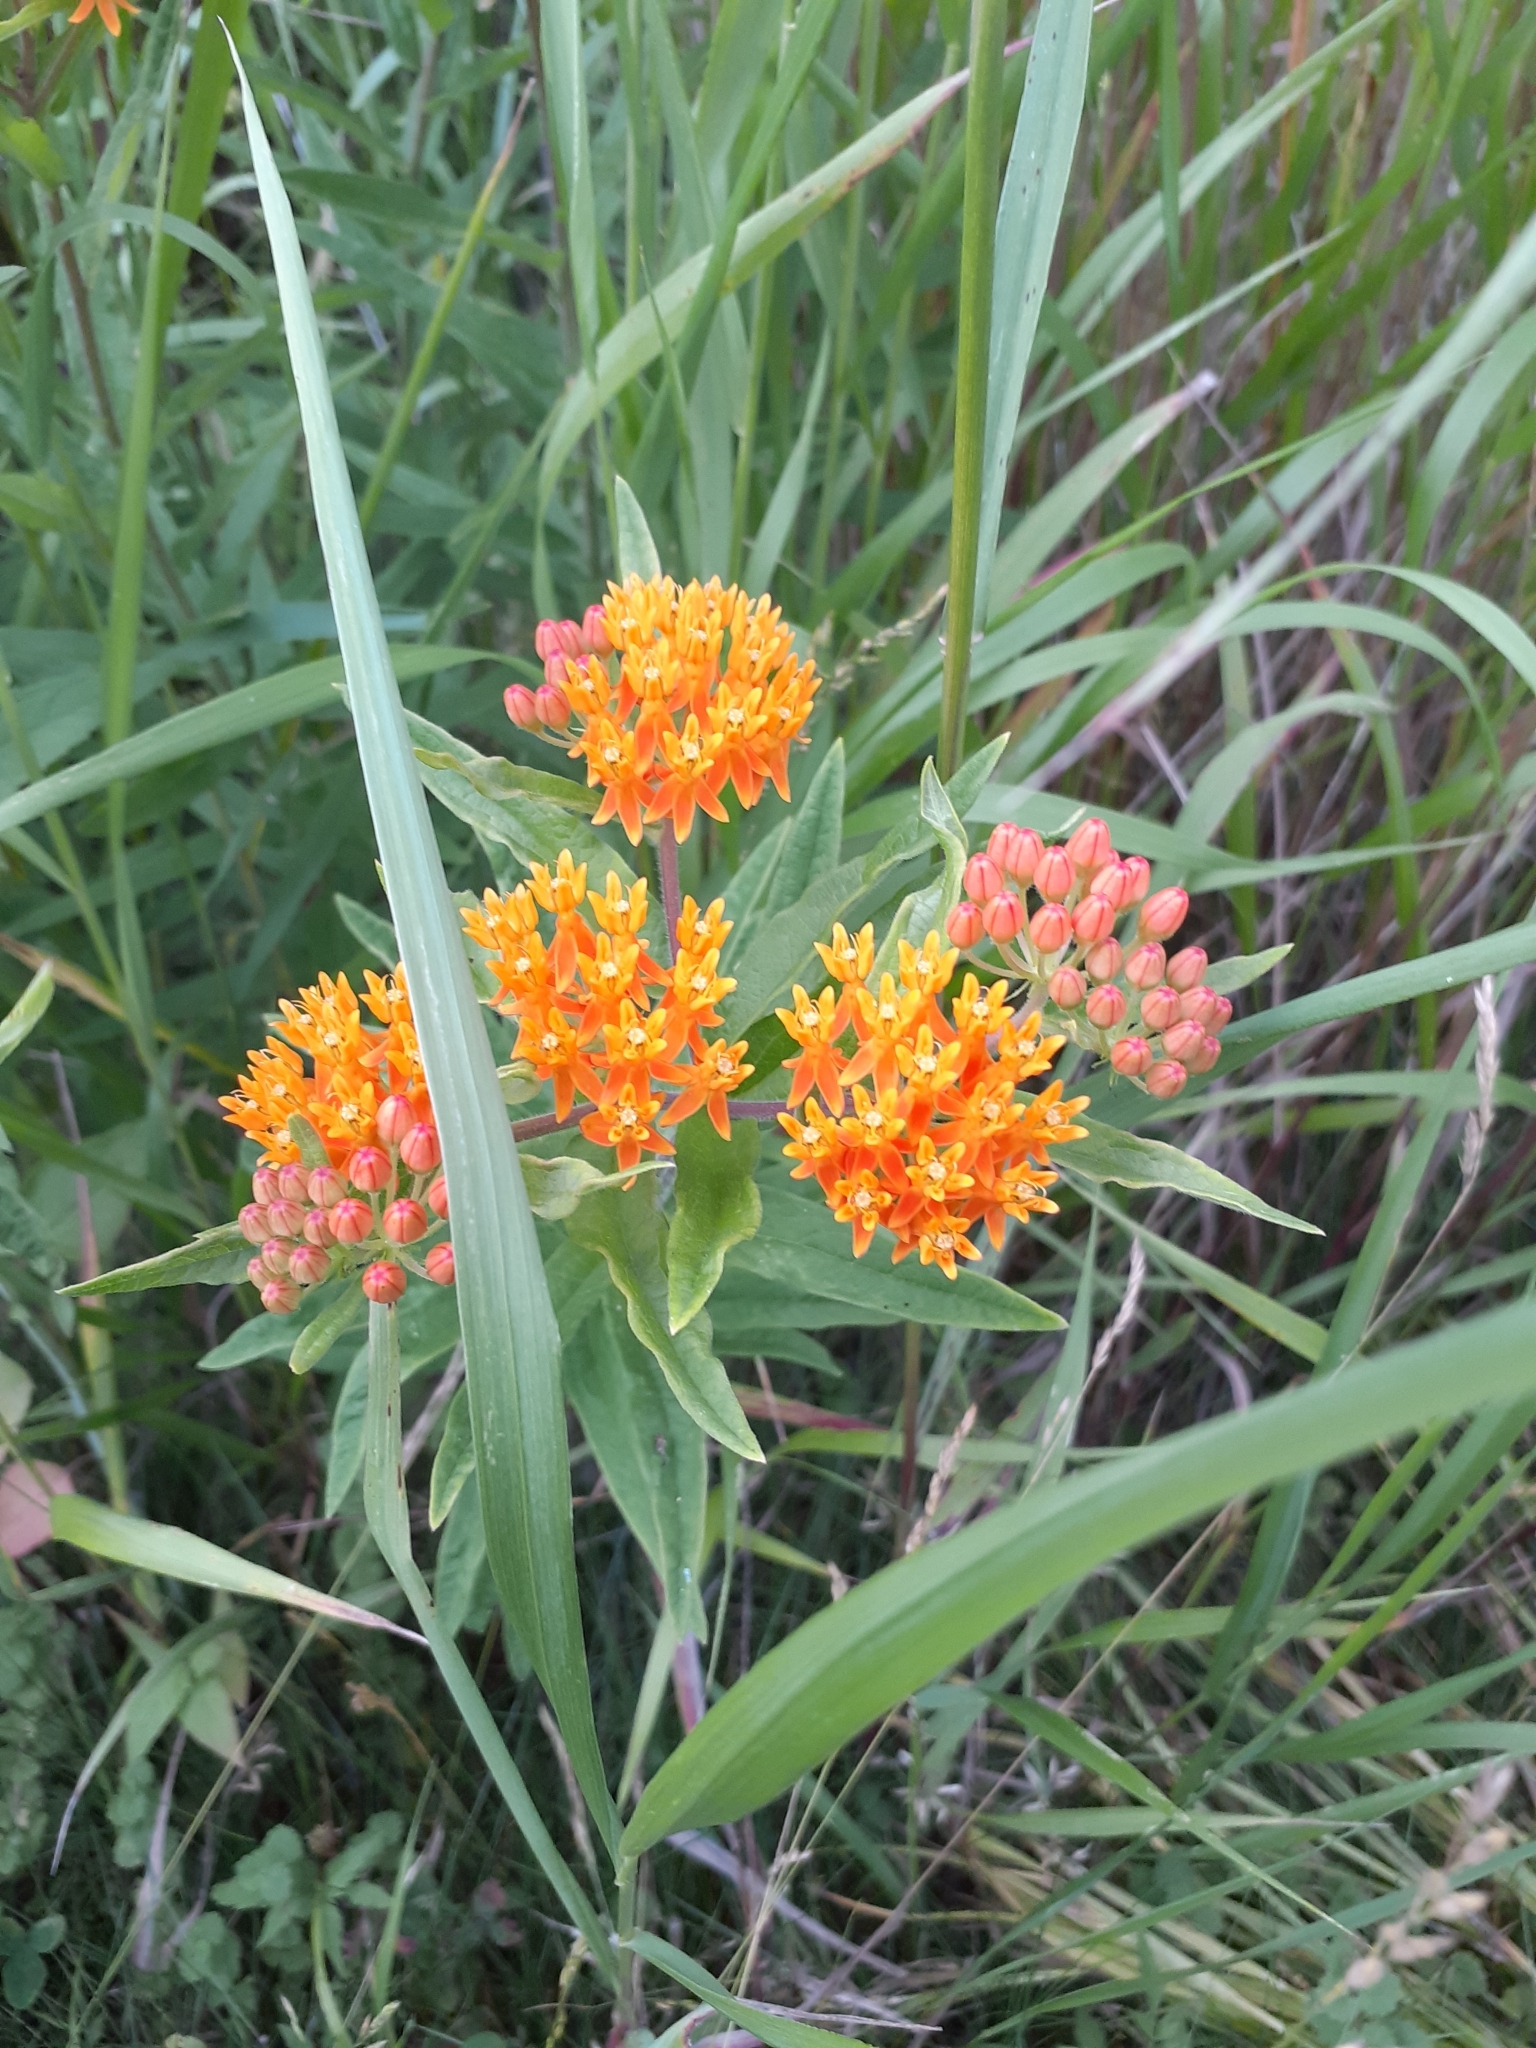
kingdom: Plantae
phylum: Tracheophyta
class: Magnoliopsida
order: Gentianales
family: Apocynaceae
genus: Asclepias
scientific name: Asclepias tuberosa
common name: Butterfly milkweed
